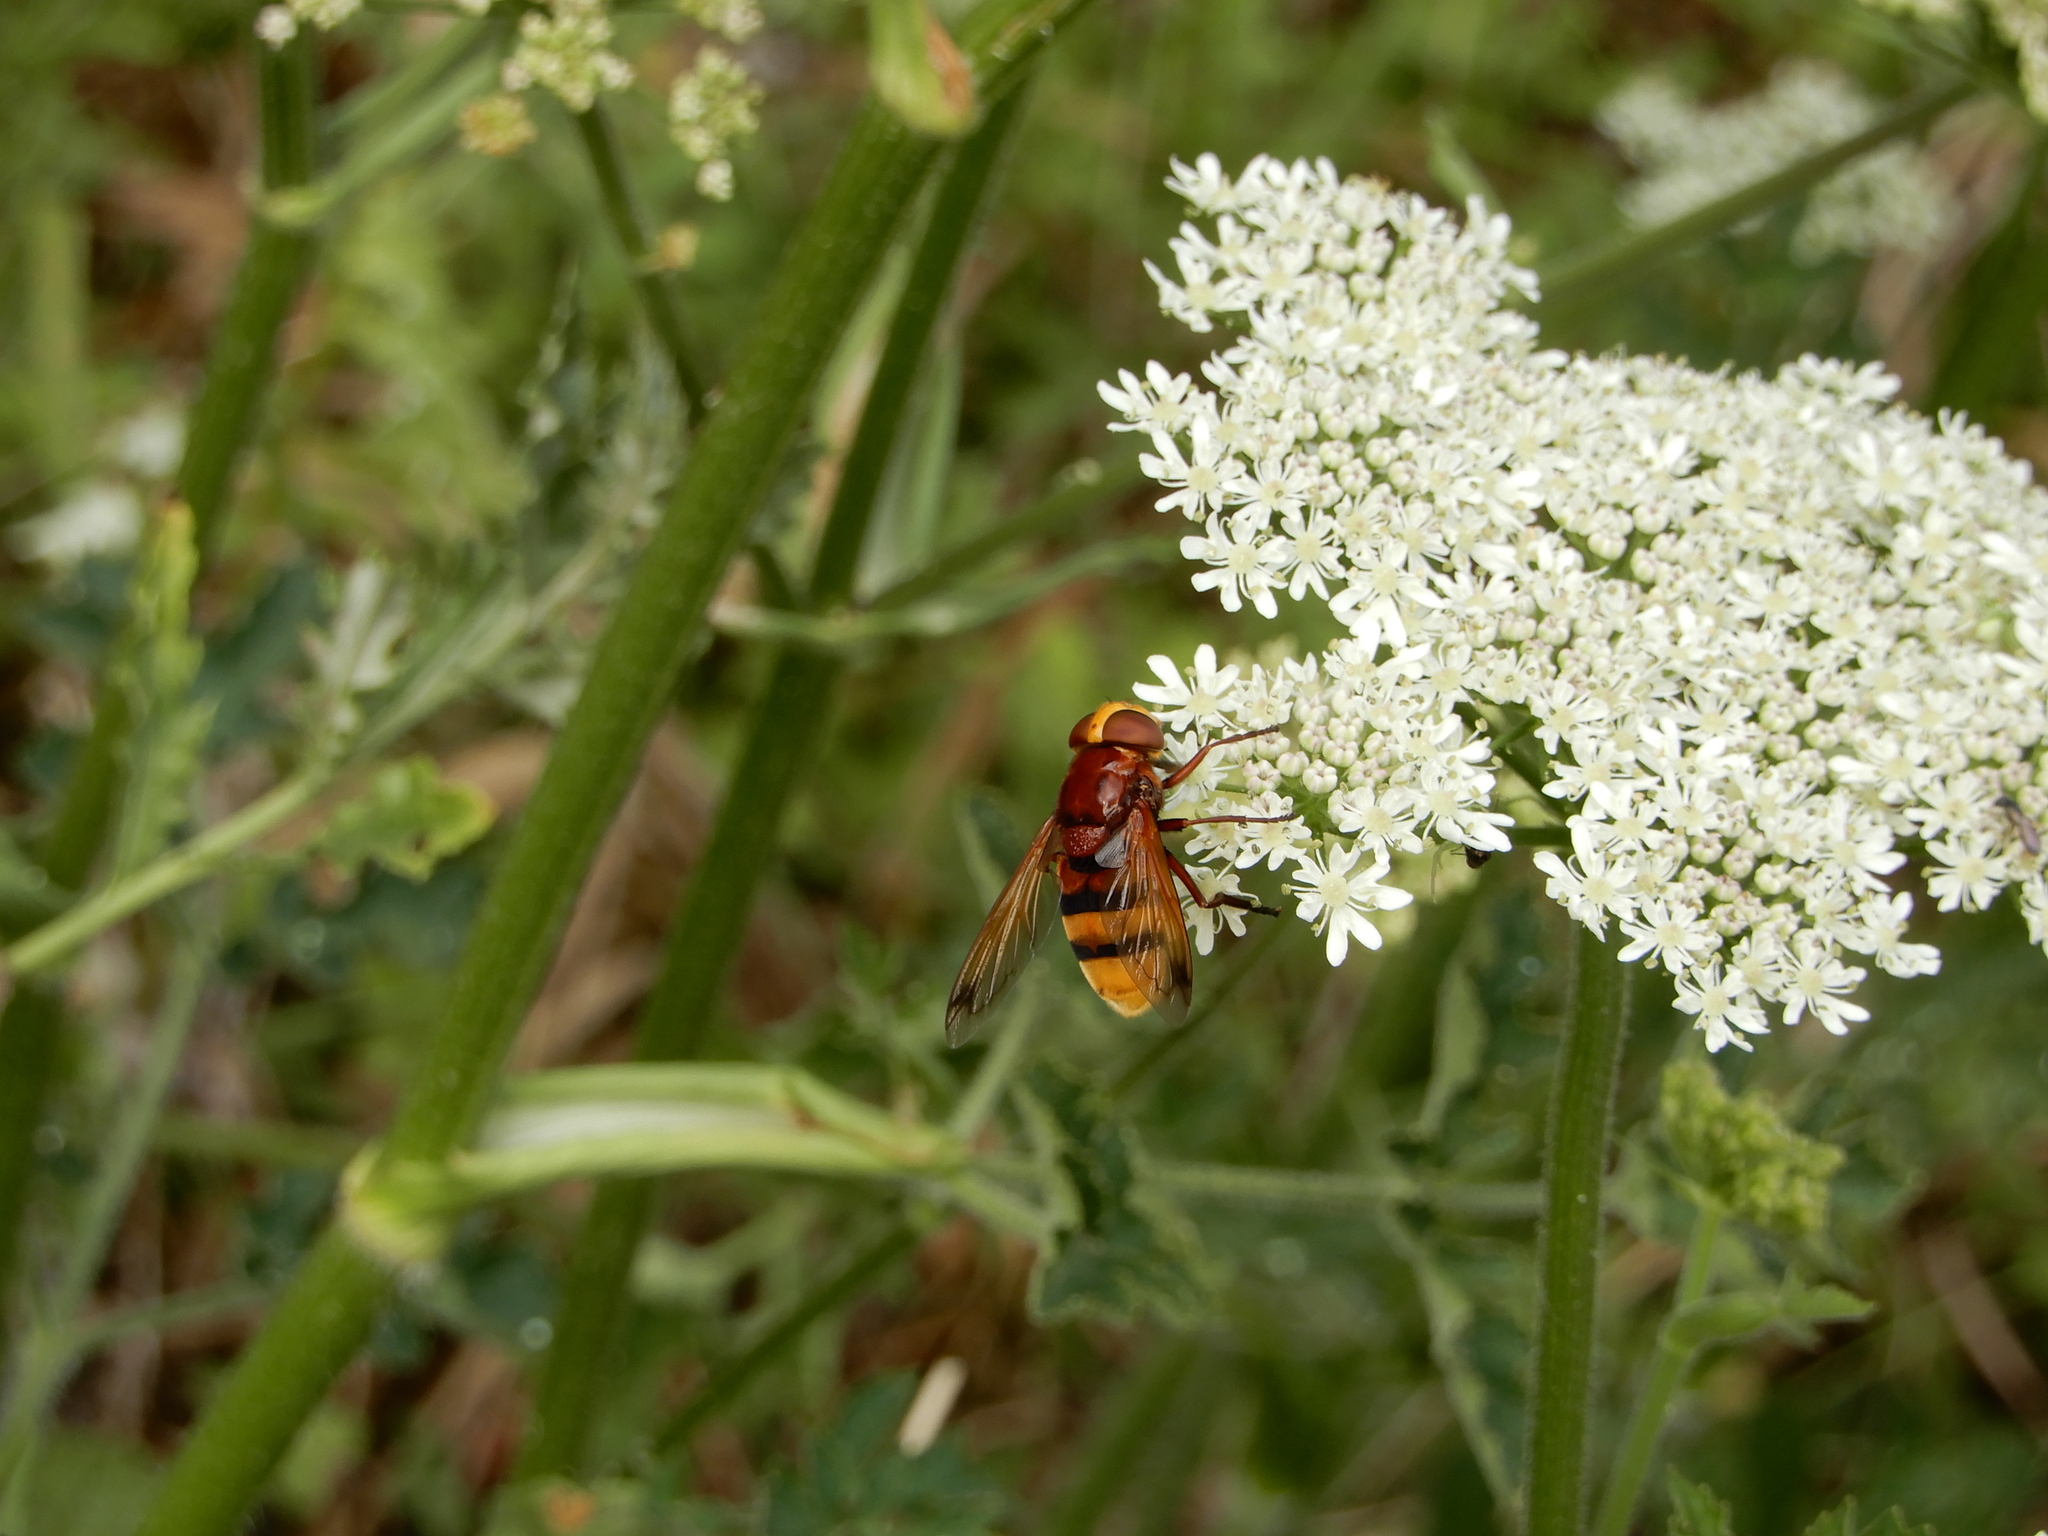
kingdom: Animalia
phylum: Arthropoda
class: Insecta
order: Diptera
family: Syrphidae
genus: Volucella
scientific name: Volucella zonaria
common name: Hornet hoverfly
